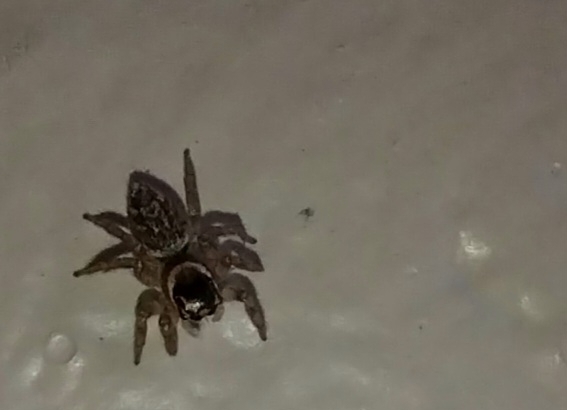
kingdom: Animalia
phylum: Arthropoda
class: Arachnida
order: Araneae
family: Salticidae
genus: Maratus
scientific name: Maratus griseus
